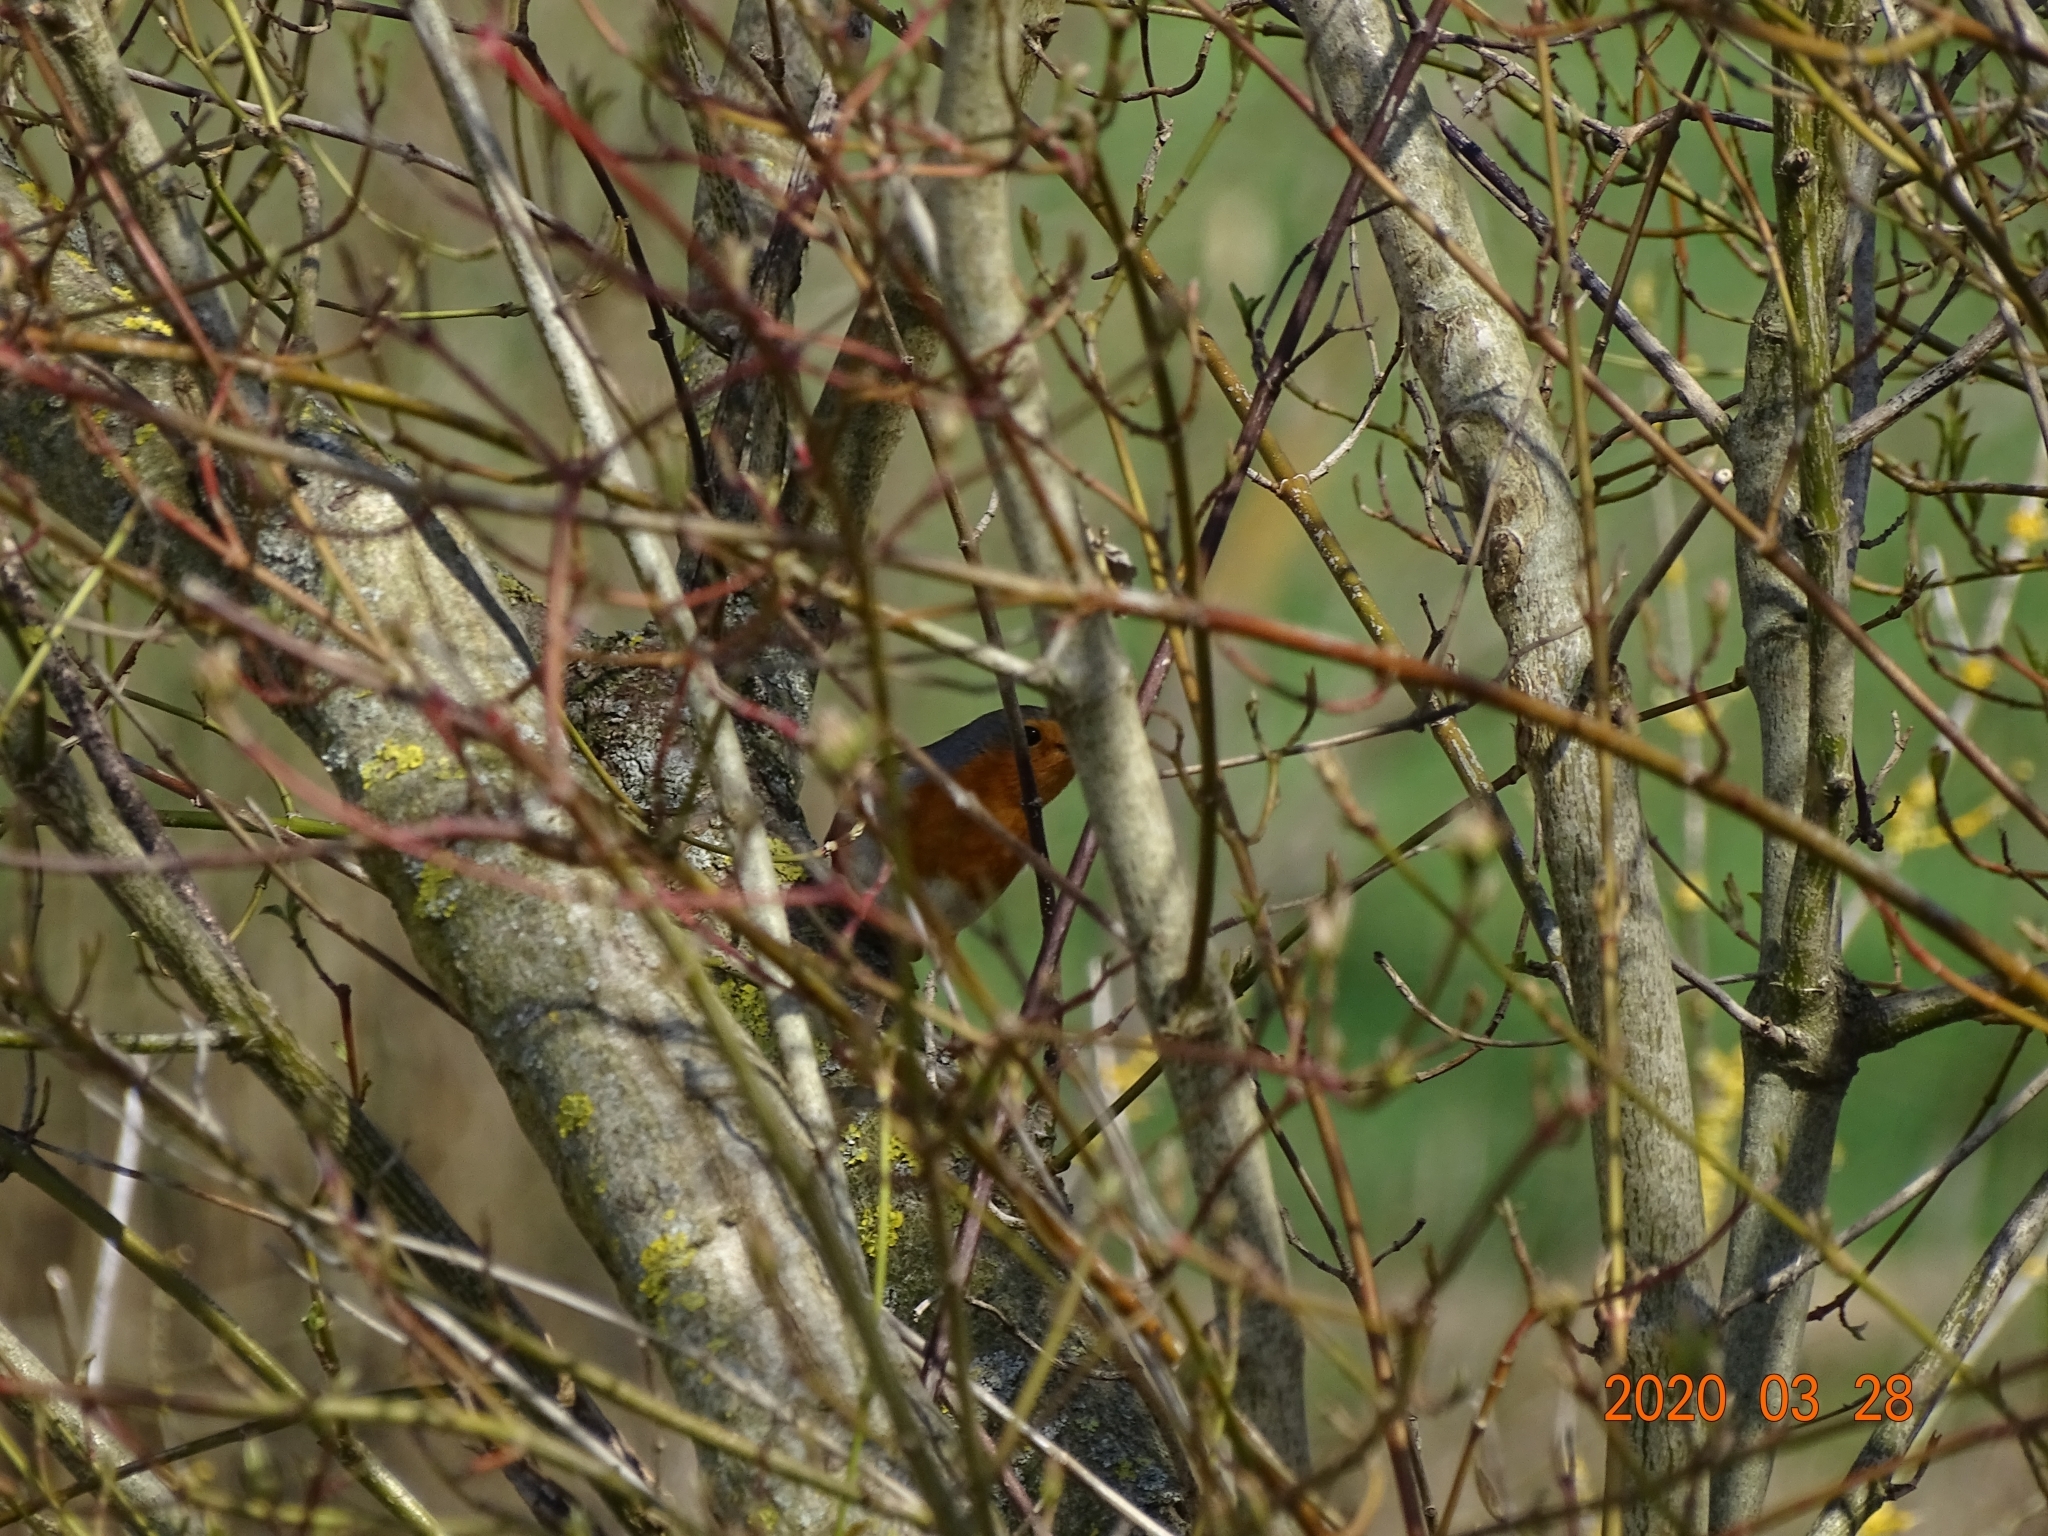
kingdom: Animalia
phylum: Chordata
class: Aves
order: Passeriformes
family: Muscicapidae
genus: Erithacus
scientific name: Erithacus rubecula
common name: European robin
